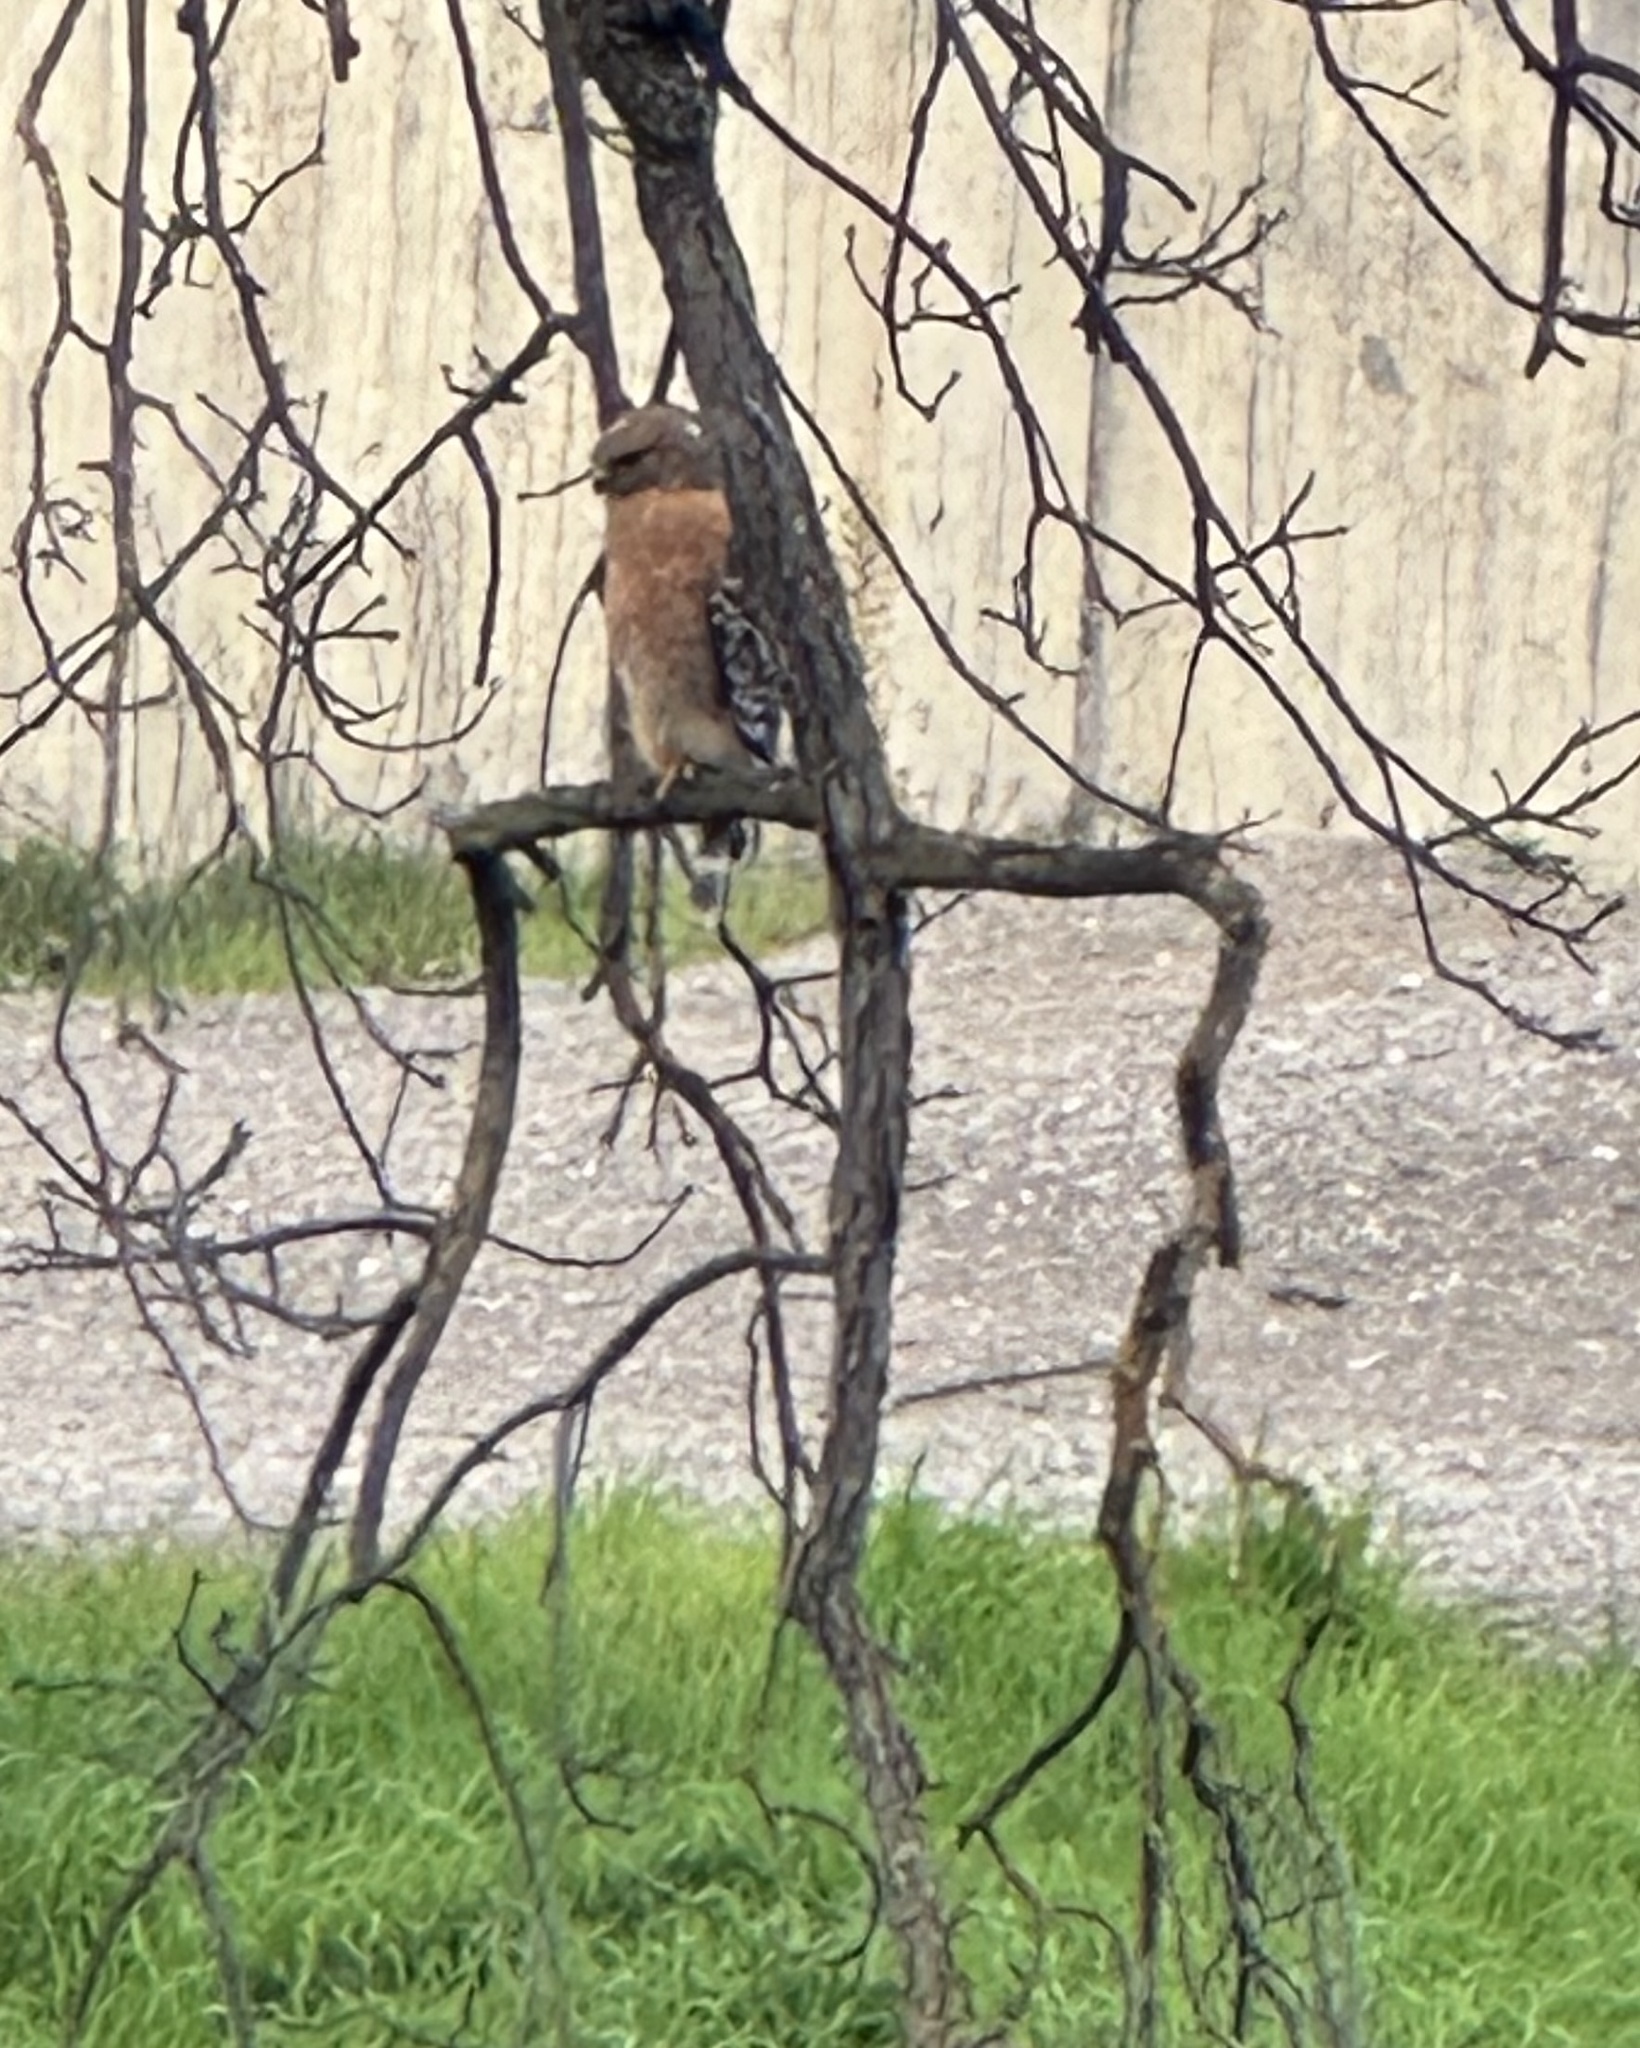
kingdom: Animalia
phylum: Chordata
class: Aves
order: Accipitriformes
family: Accipitridae
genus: Buteo
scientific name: Buteo lineatus
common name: Red-shouldered hawk
